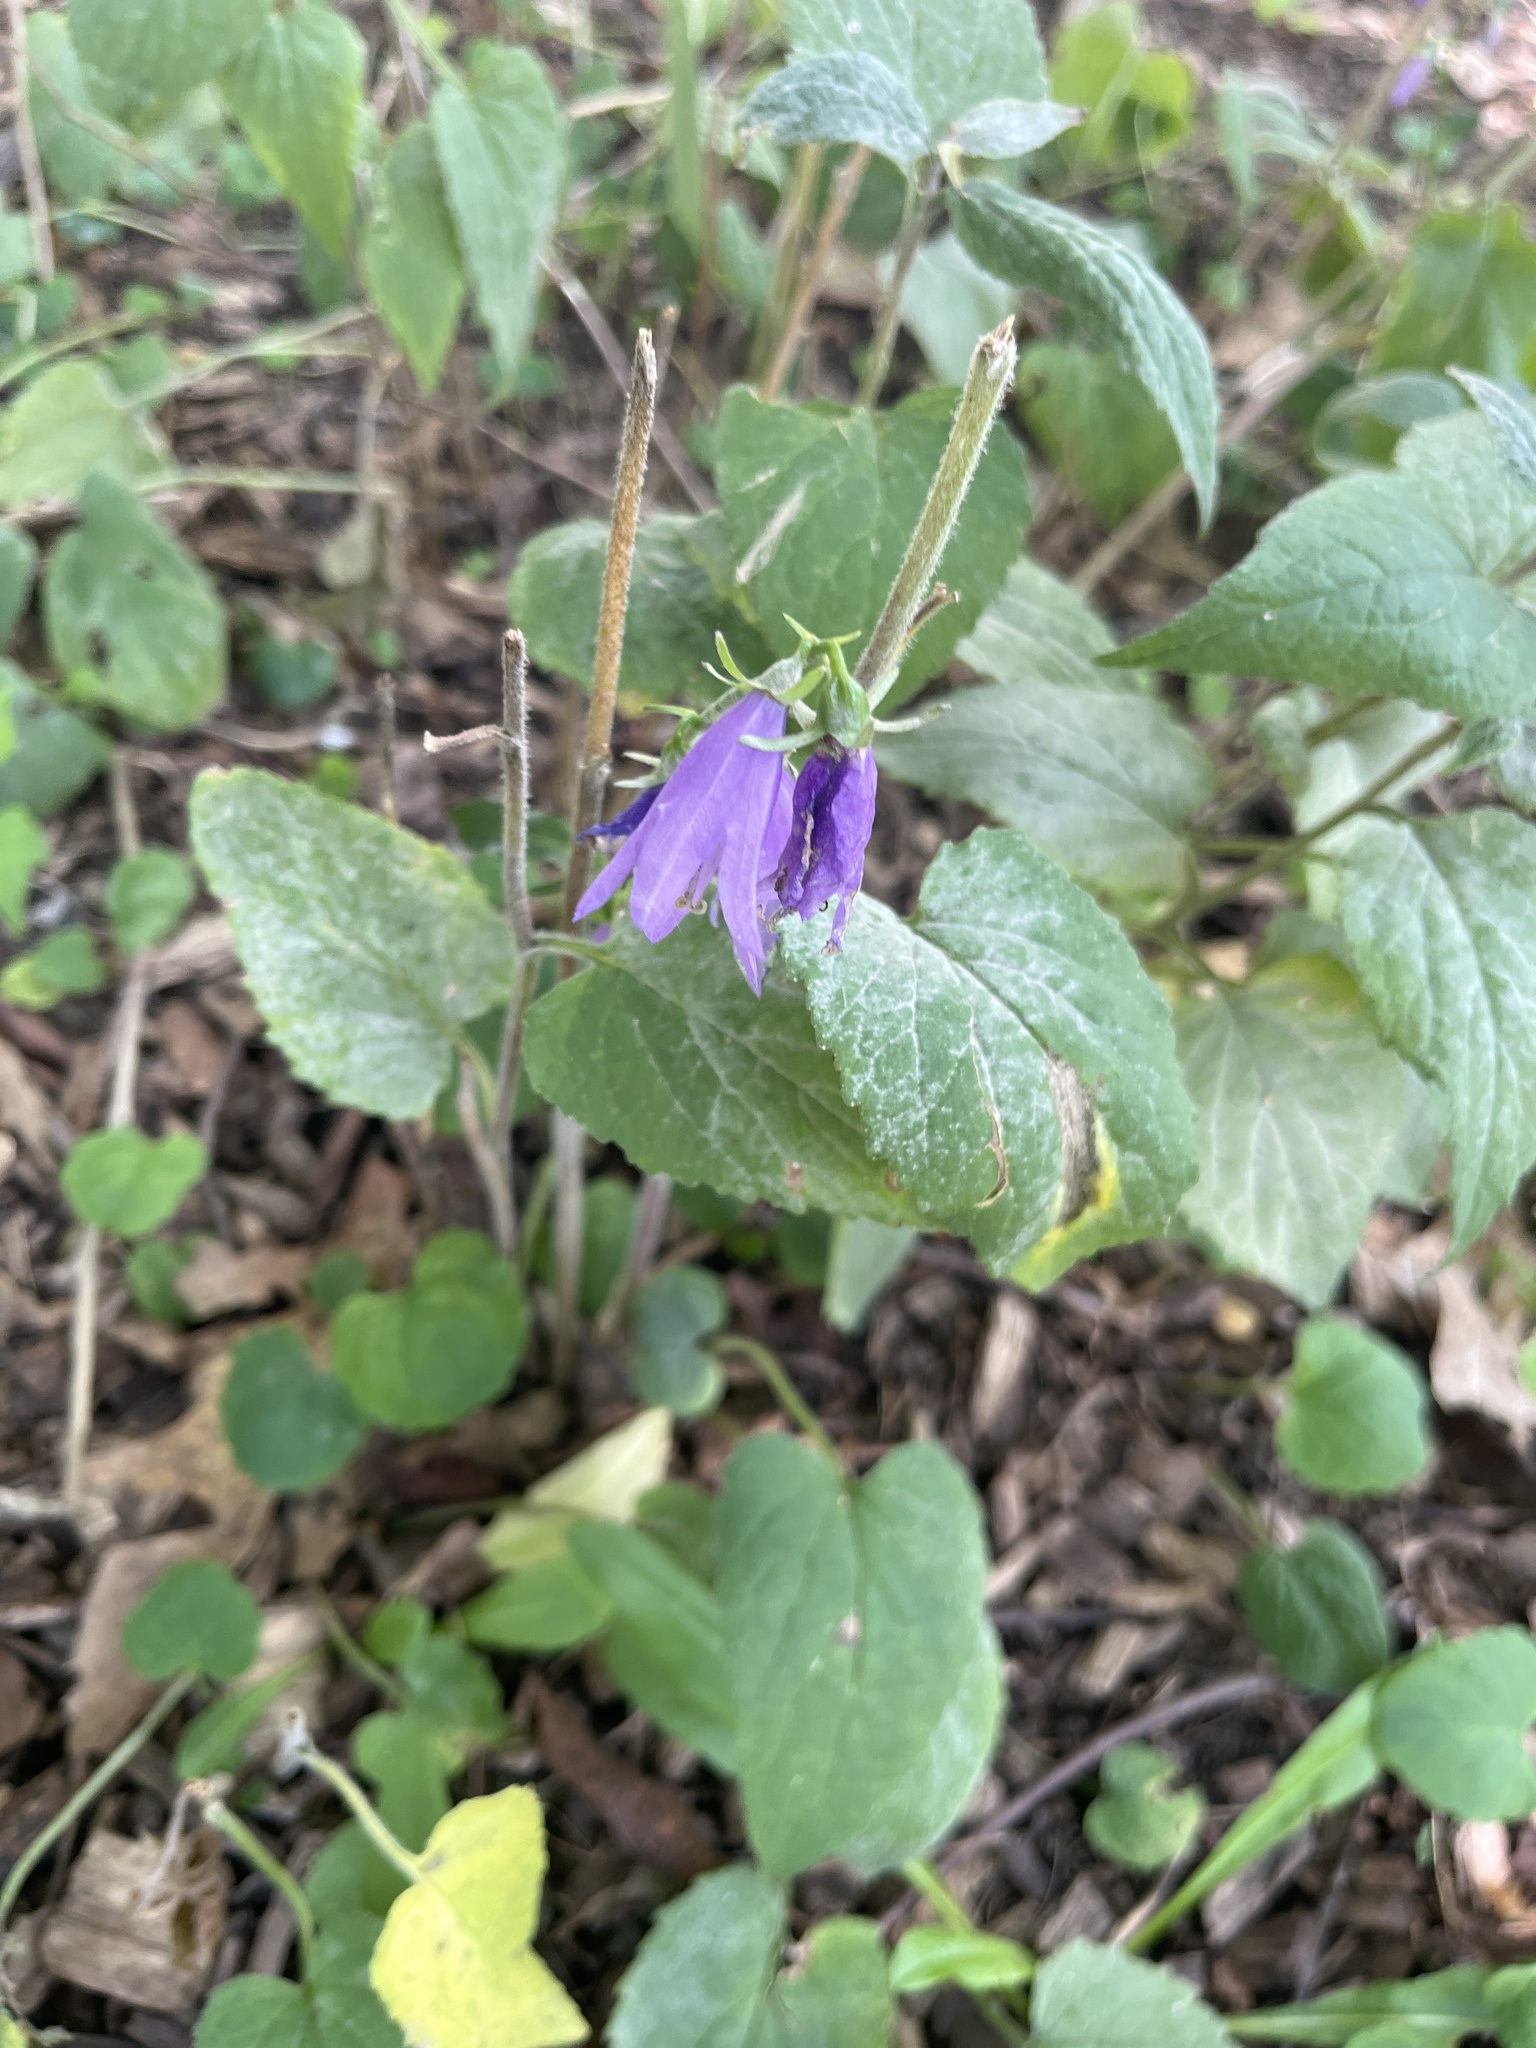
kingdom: Plantae
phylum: Tracheophyta
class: Magnoliopsida
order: Asterales
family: Campanulaceae
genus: Campanula
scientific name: Campanula rapunculoides
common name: Creeping bellflower
